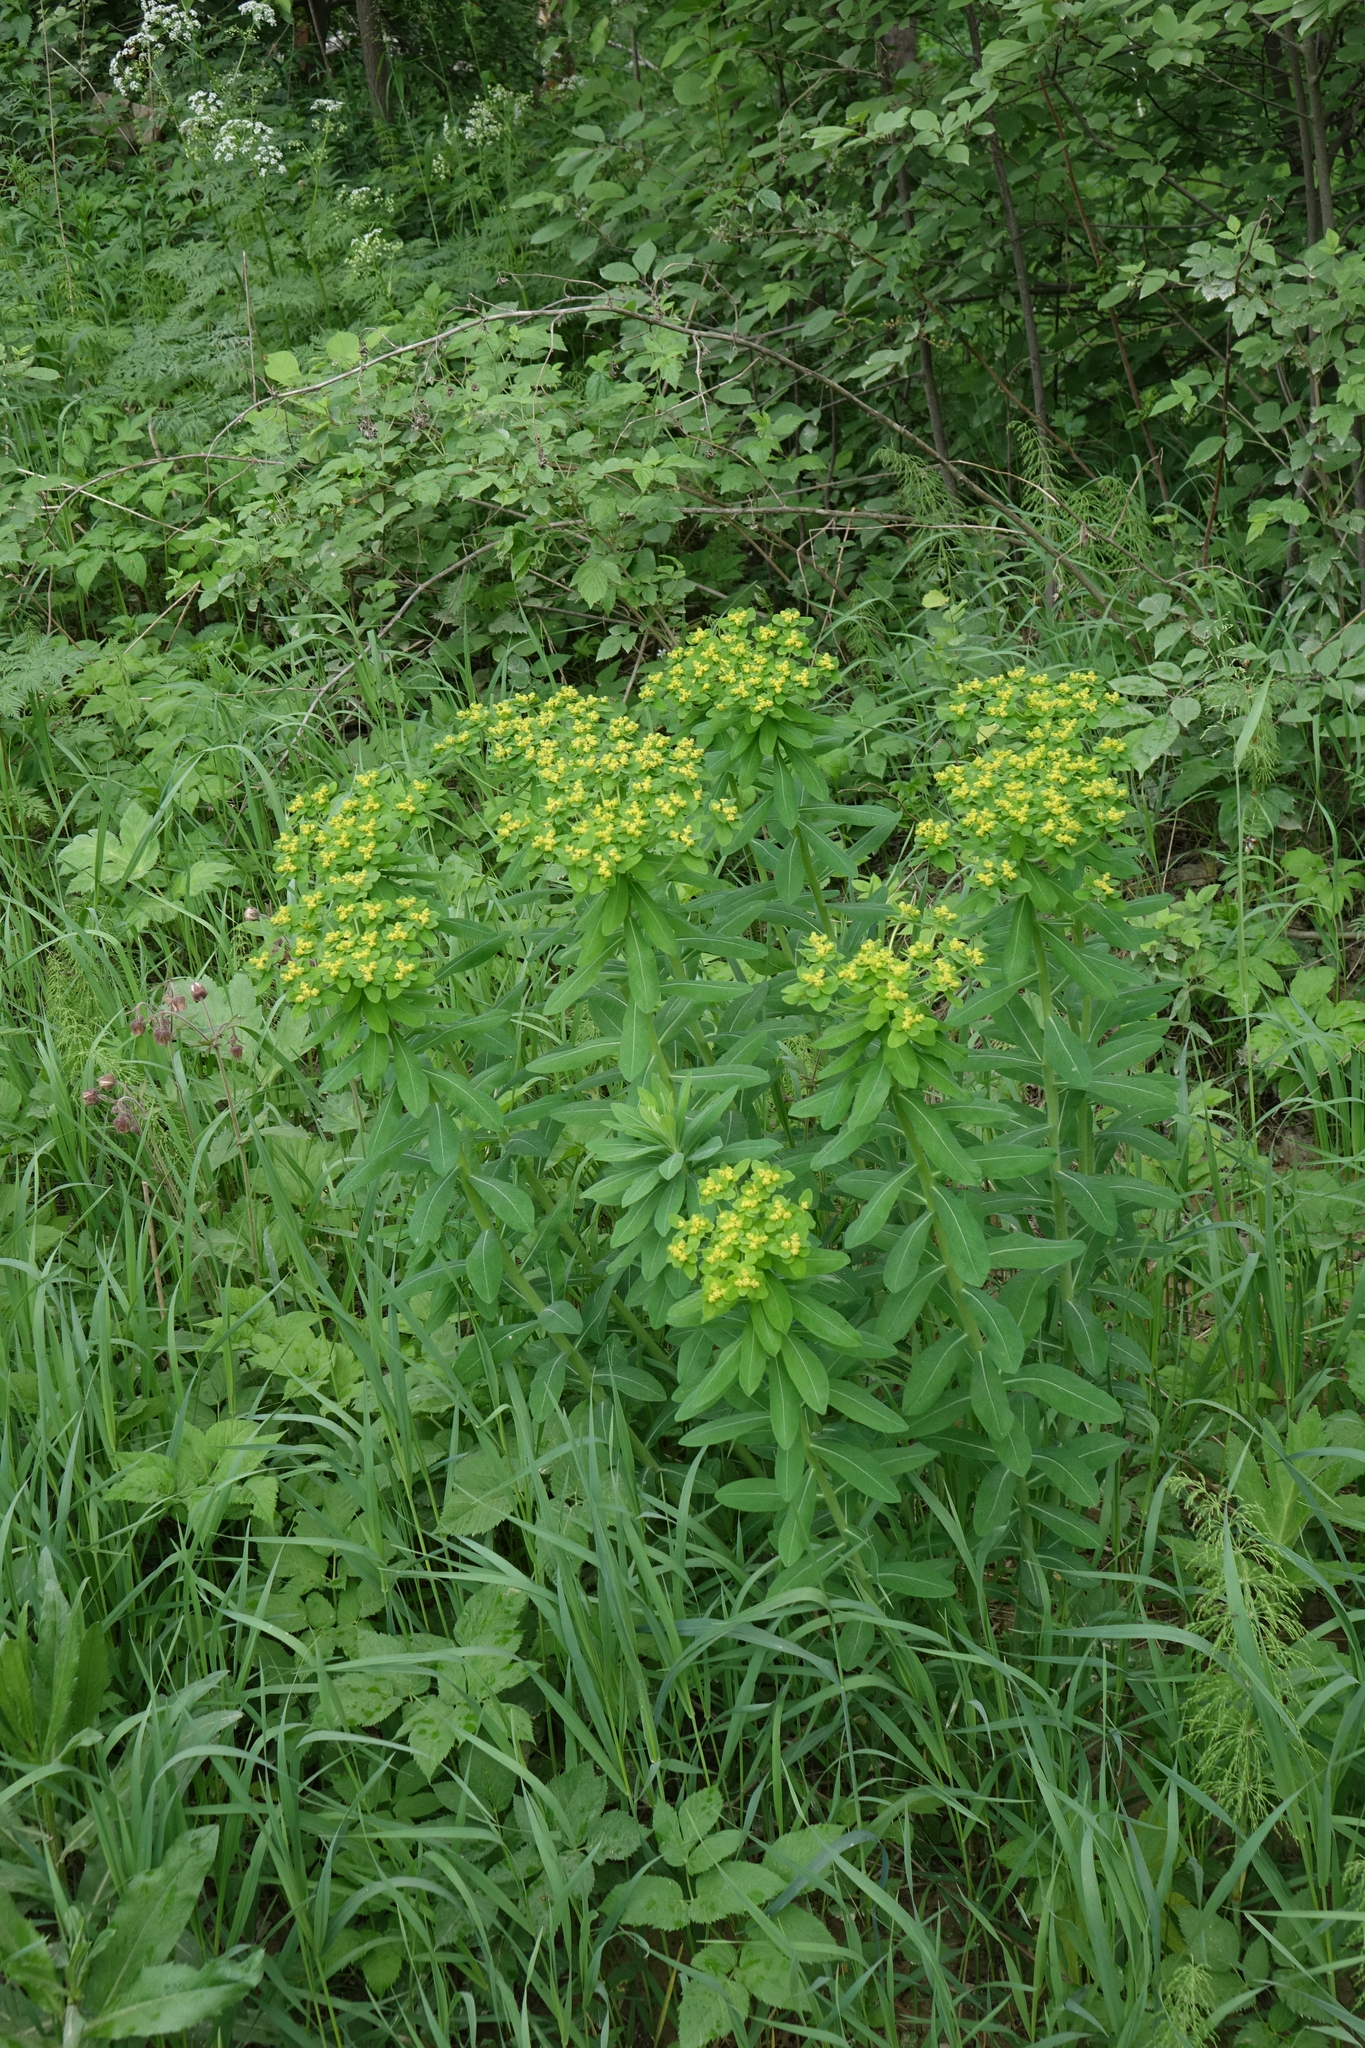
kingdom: Plantae
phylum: Tracheophyta
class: Magnoliopsida
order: Malpighiales
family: Euphorbiaceae
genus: Euphorbia
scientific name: Euphorbia pilosa
